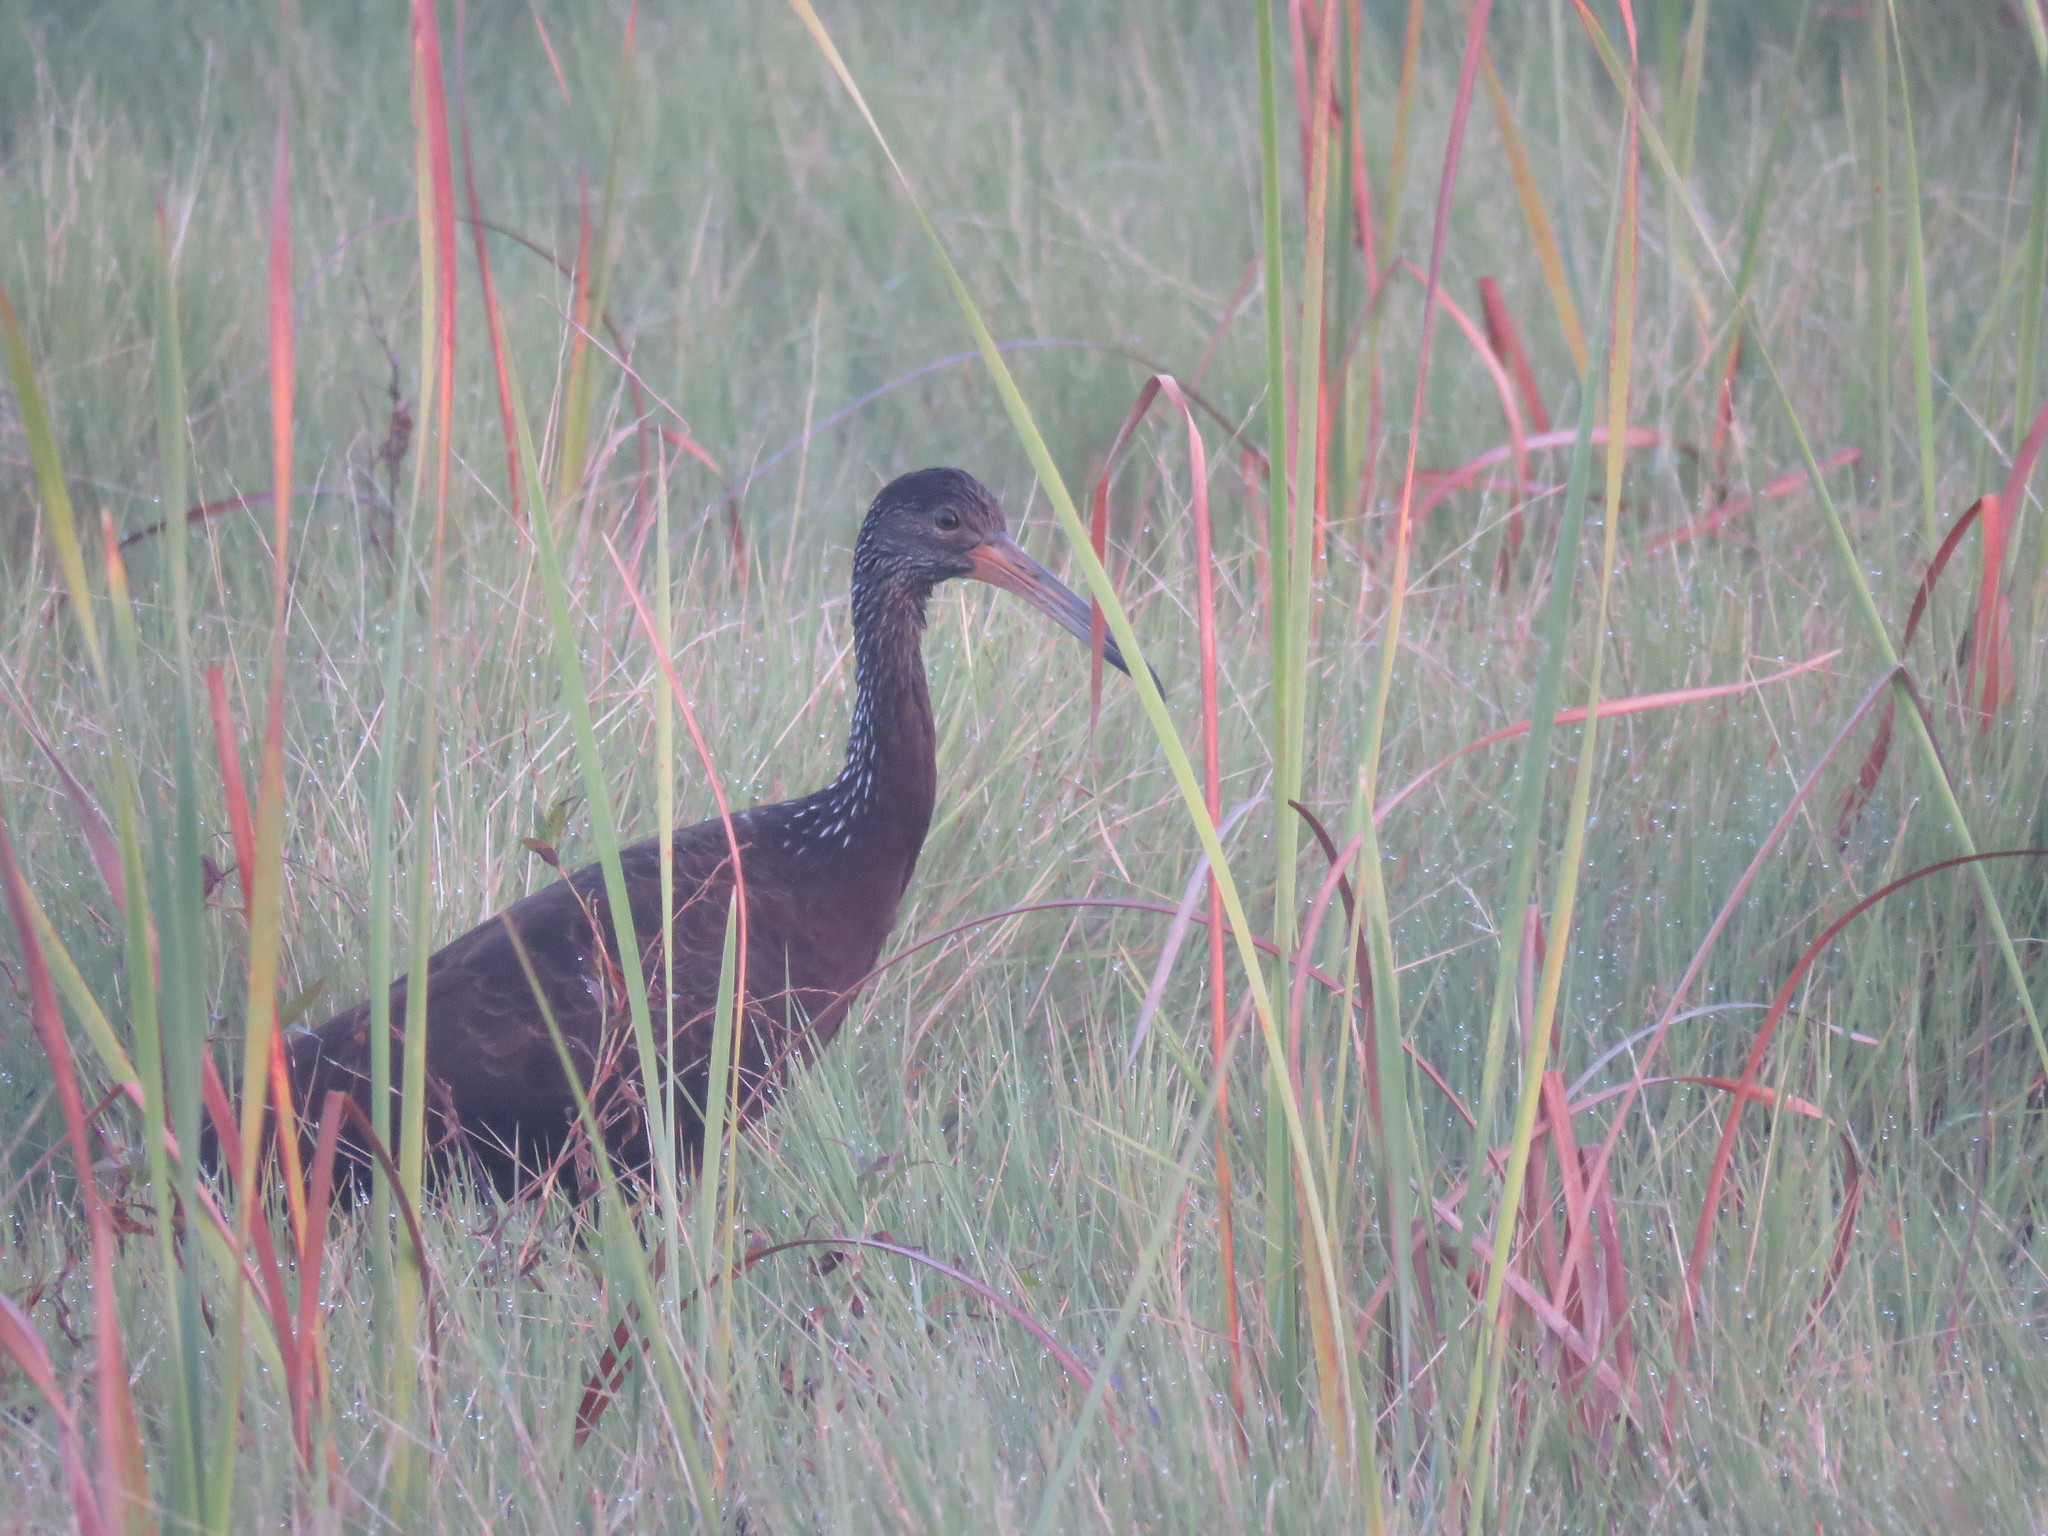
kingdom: Animalia
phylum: Chordata
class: Aves
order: Gruiformes
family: Aramidae
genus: Aramus
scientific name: Aramus guarauna
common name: Limpkin
